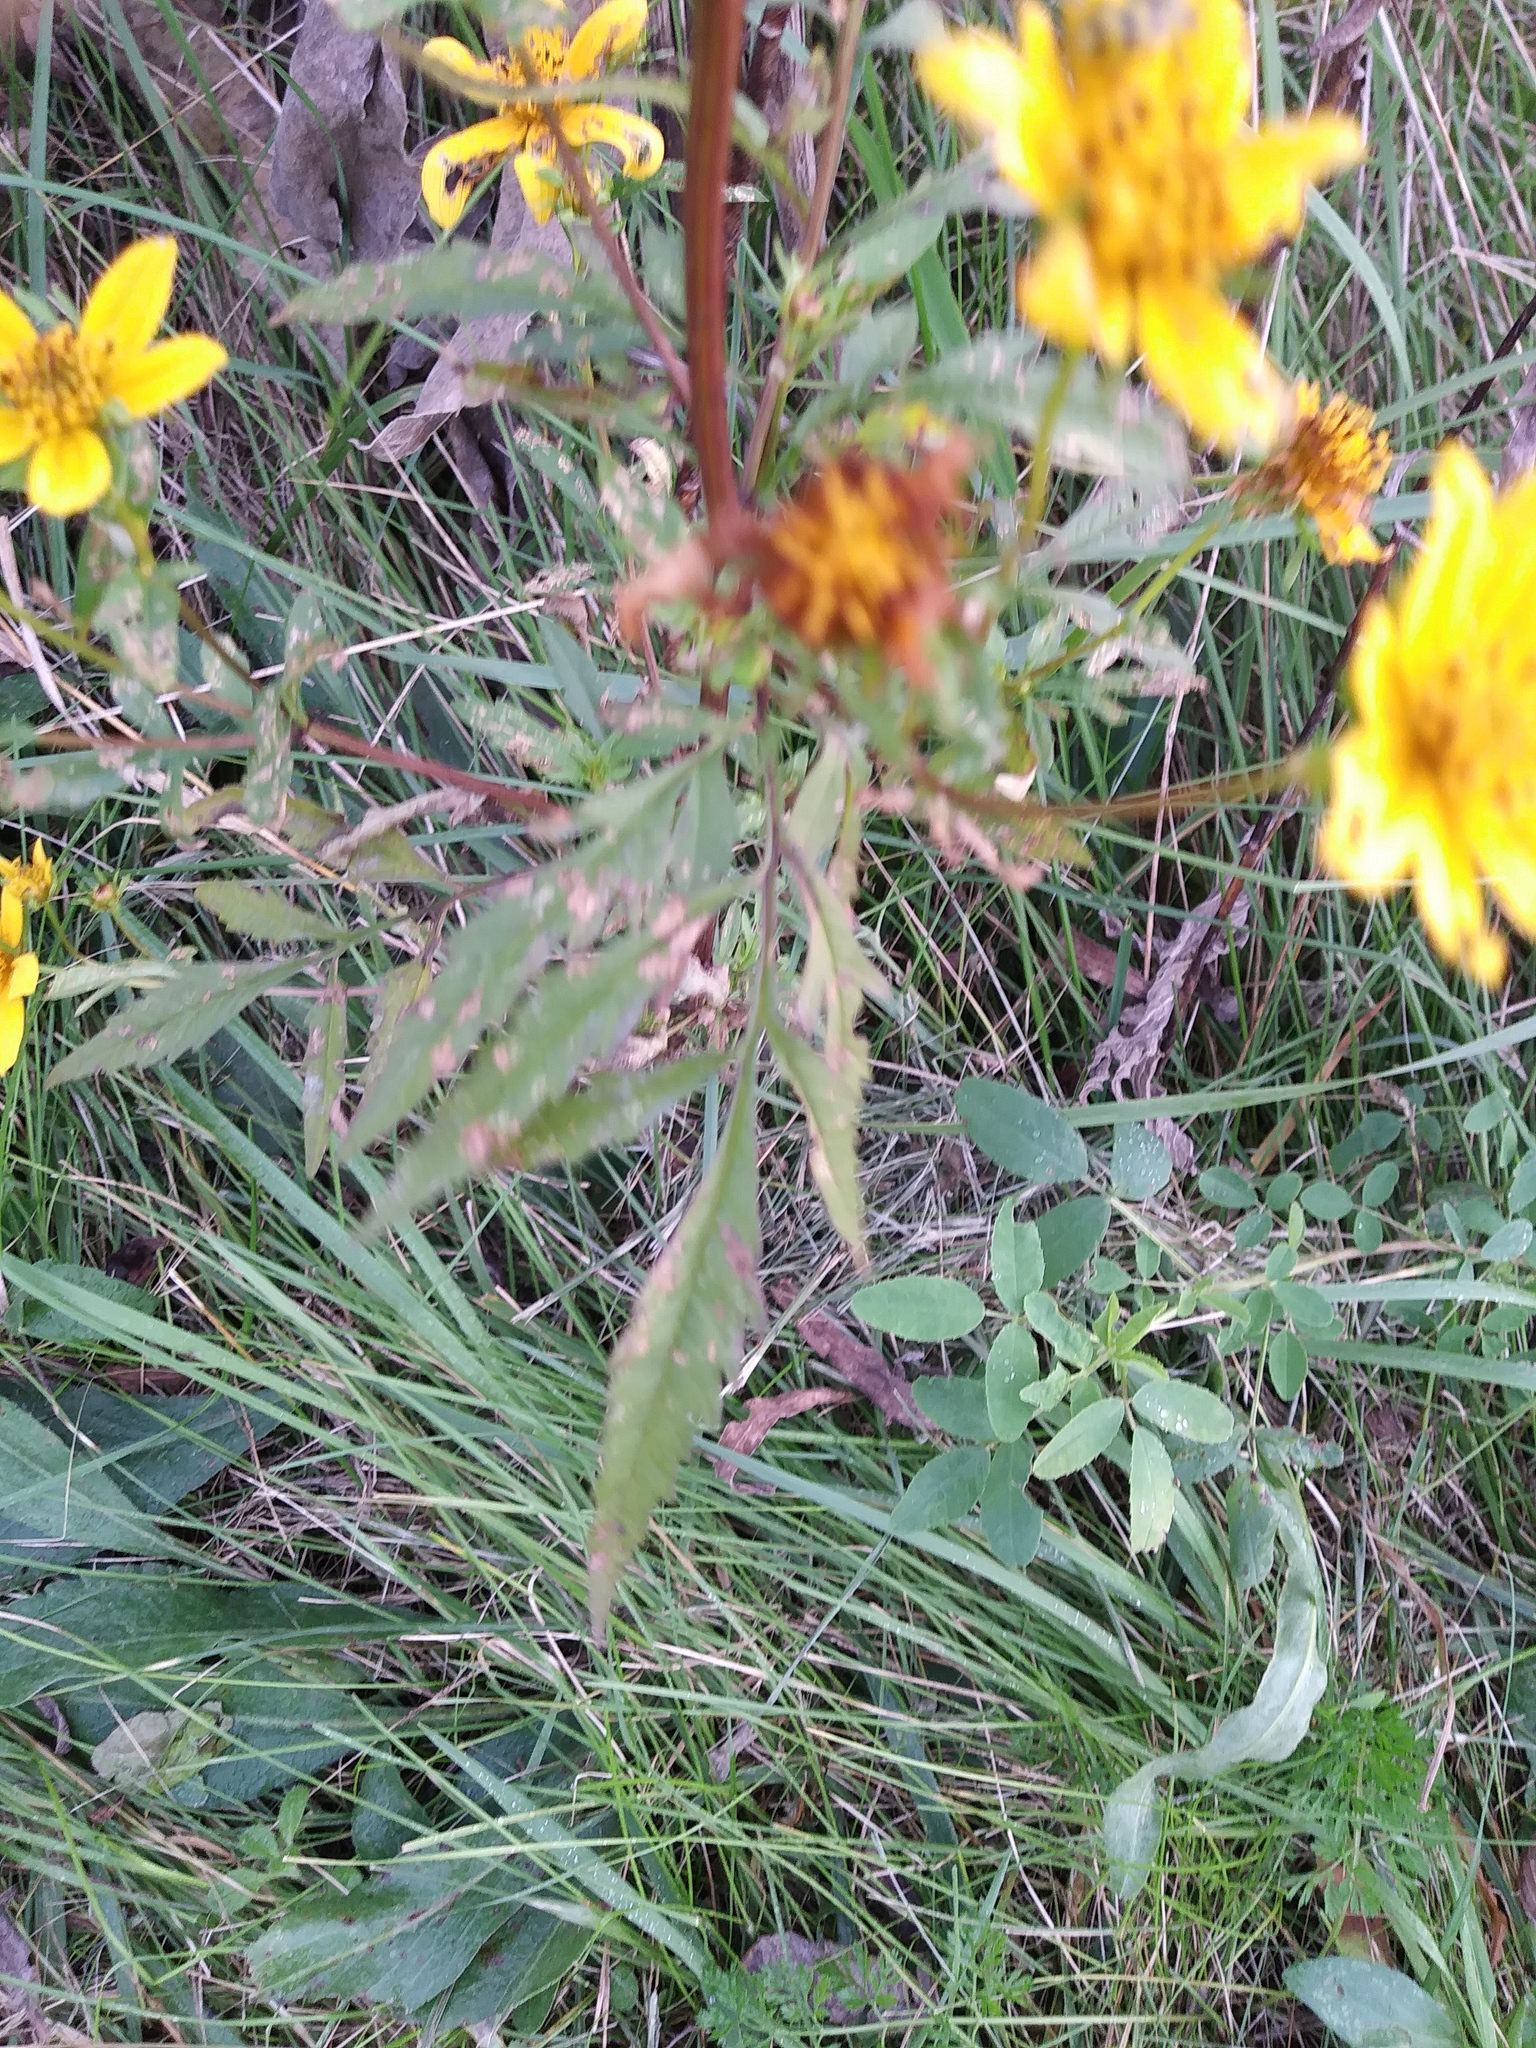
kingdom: Animalia
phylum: Arthropoda
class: Insecta
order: Coleoptera
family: Chrysomelidae
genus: Diabrotica
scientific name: Diabrotica undecimpunctata
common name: Spotted cucumber beetle
